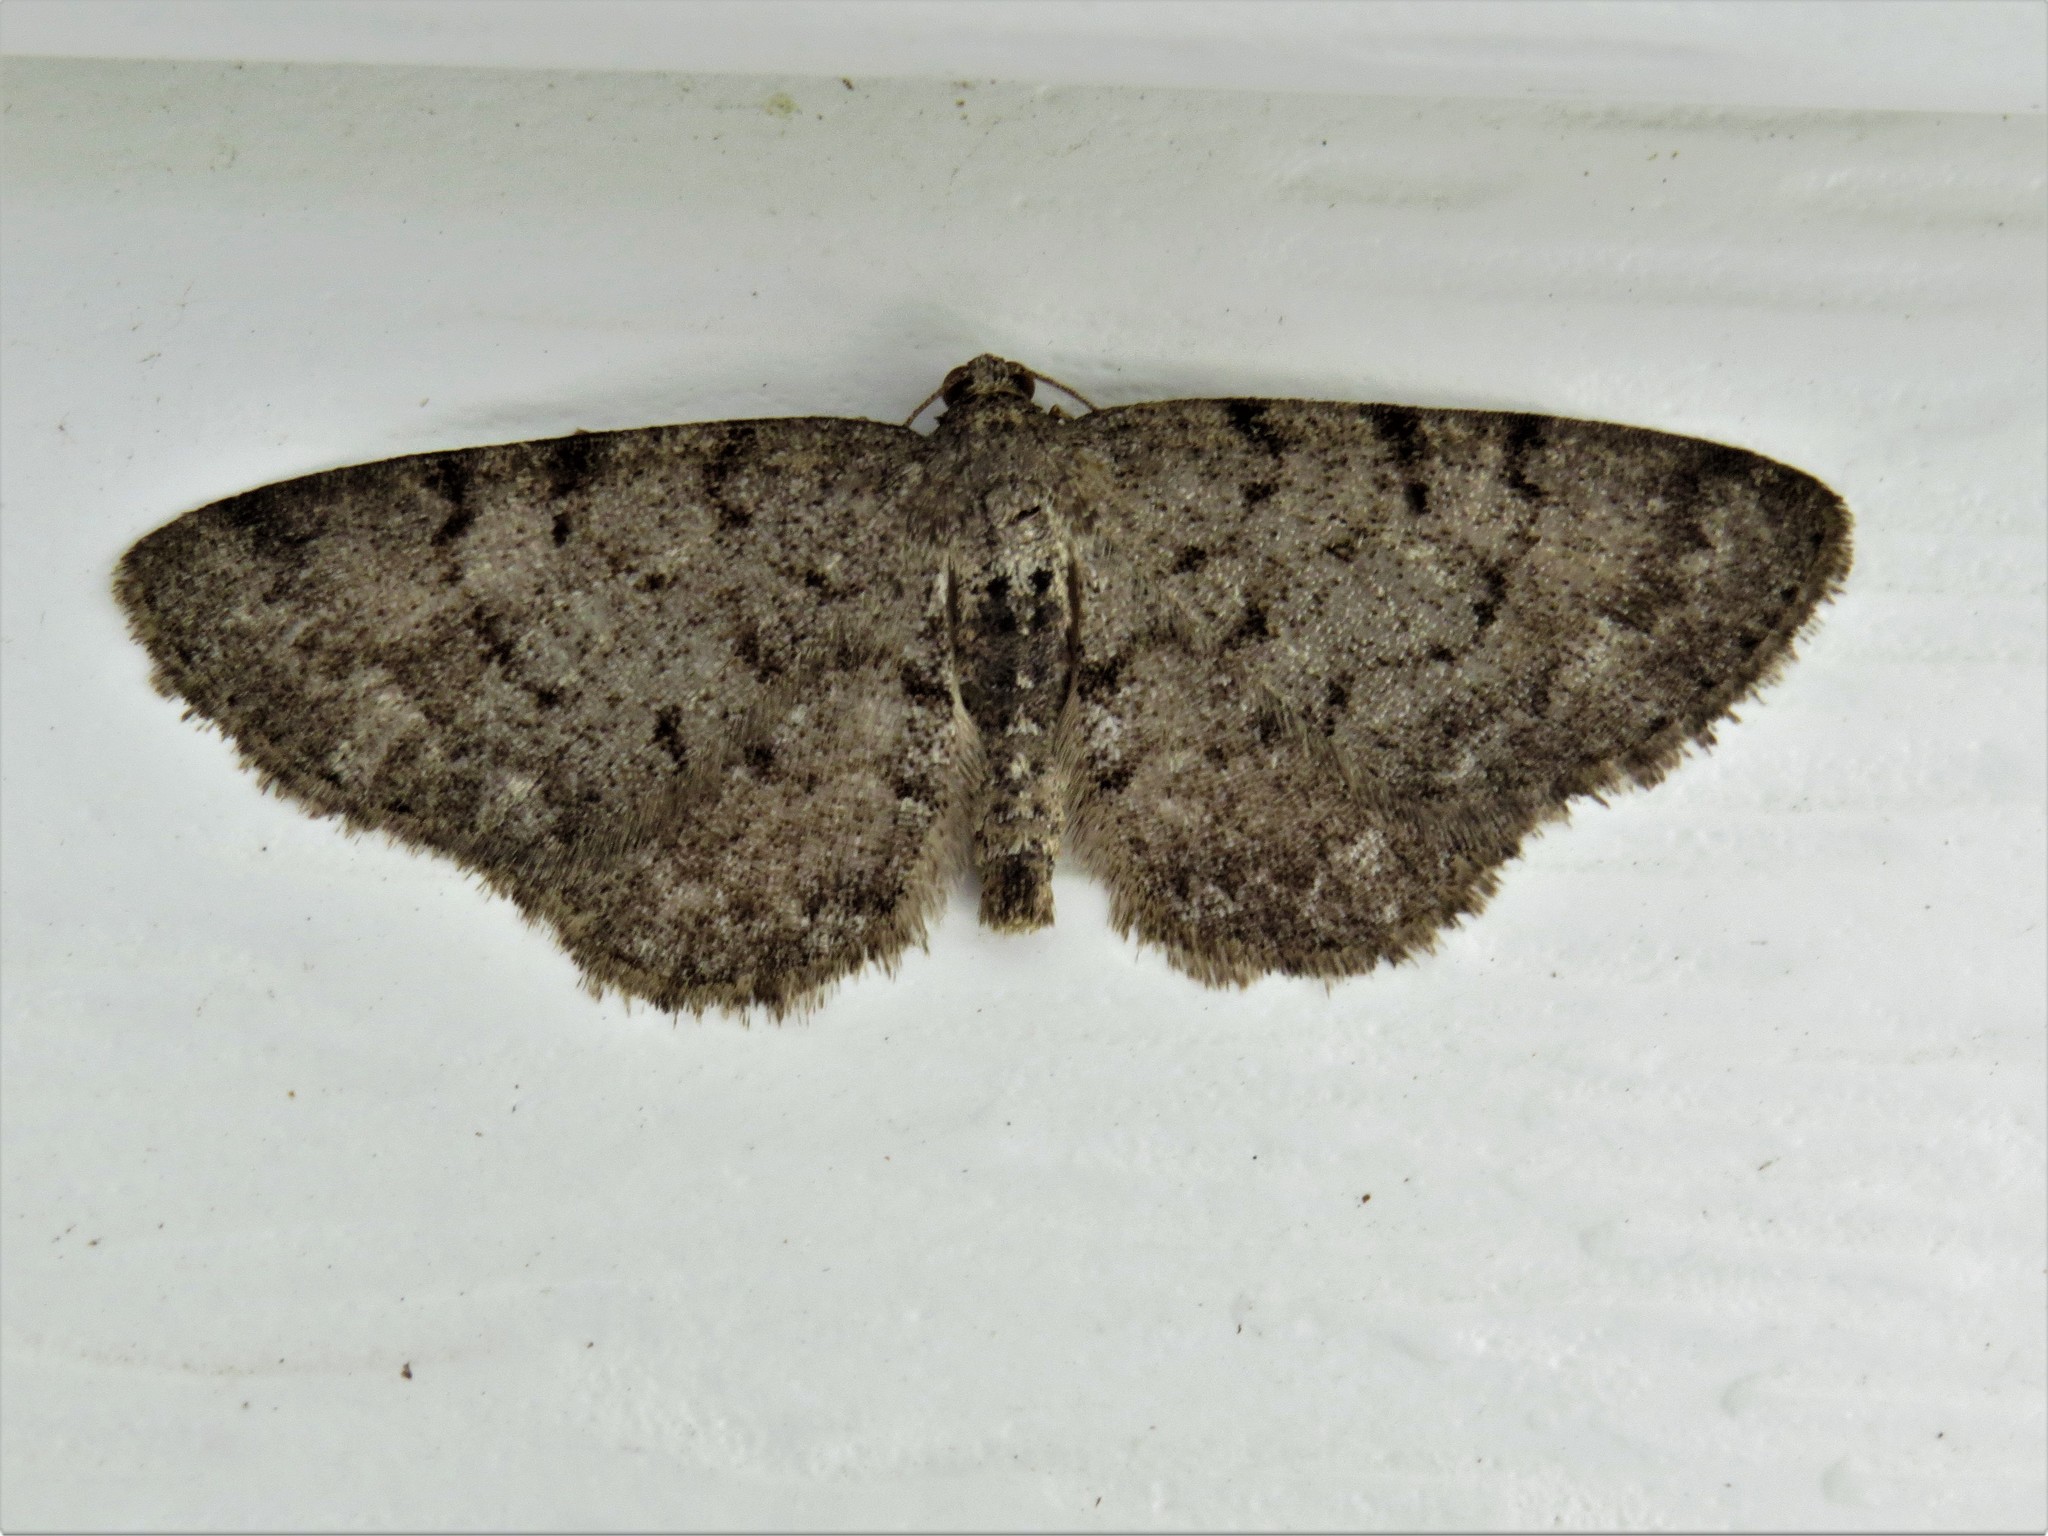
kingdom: Animalia
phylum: Arthropoda
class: Insecta
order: Lepidoptera
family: Geometridae
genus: Aethalura
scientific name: Aethalura intertexta
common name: Four-barred gray
